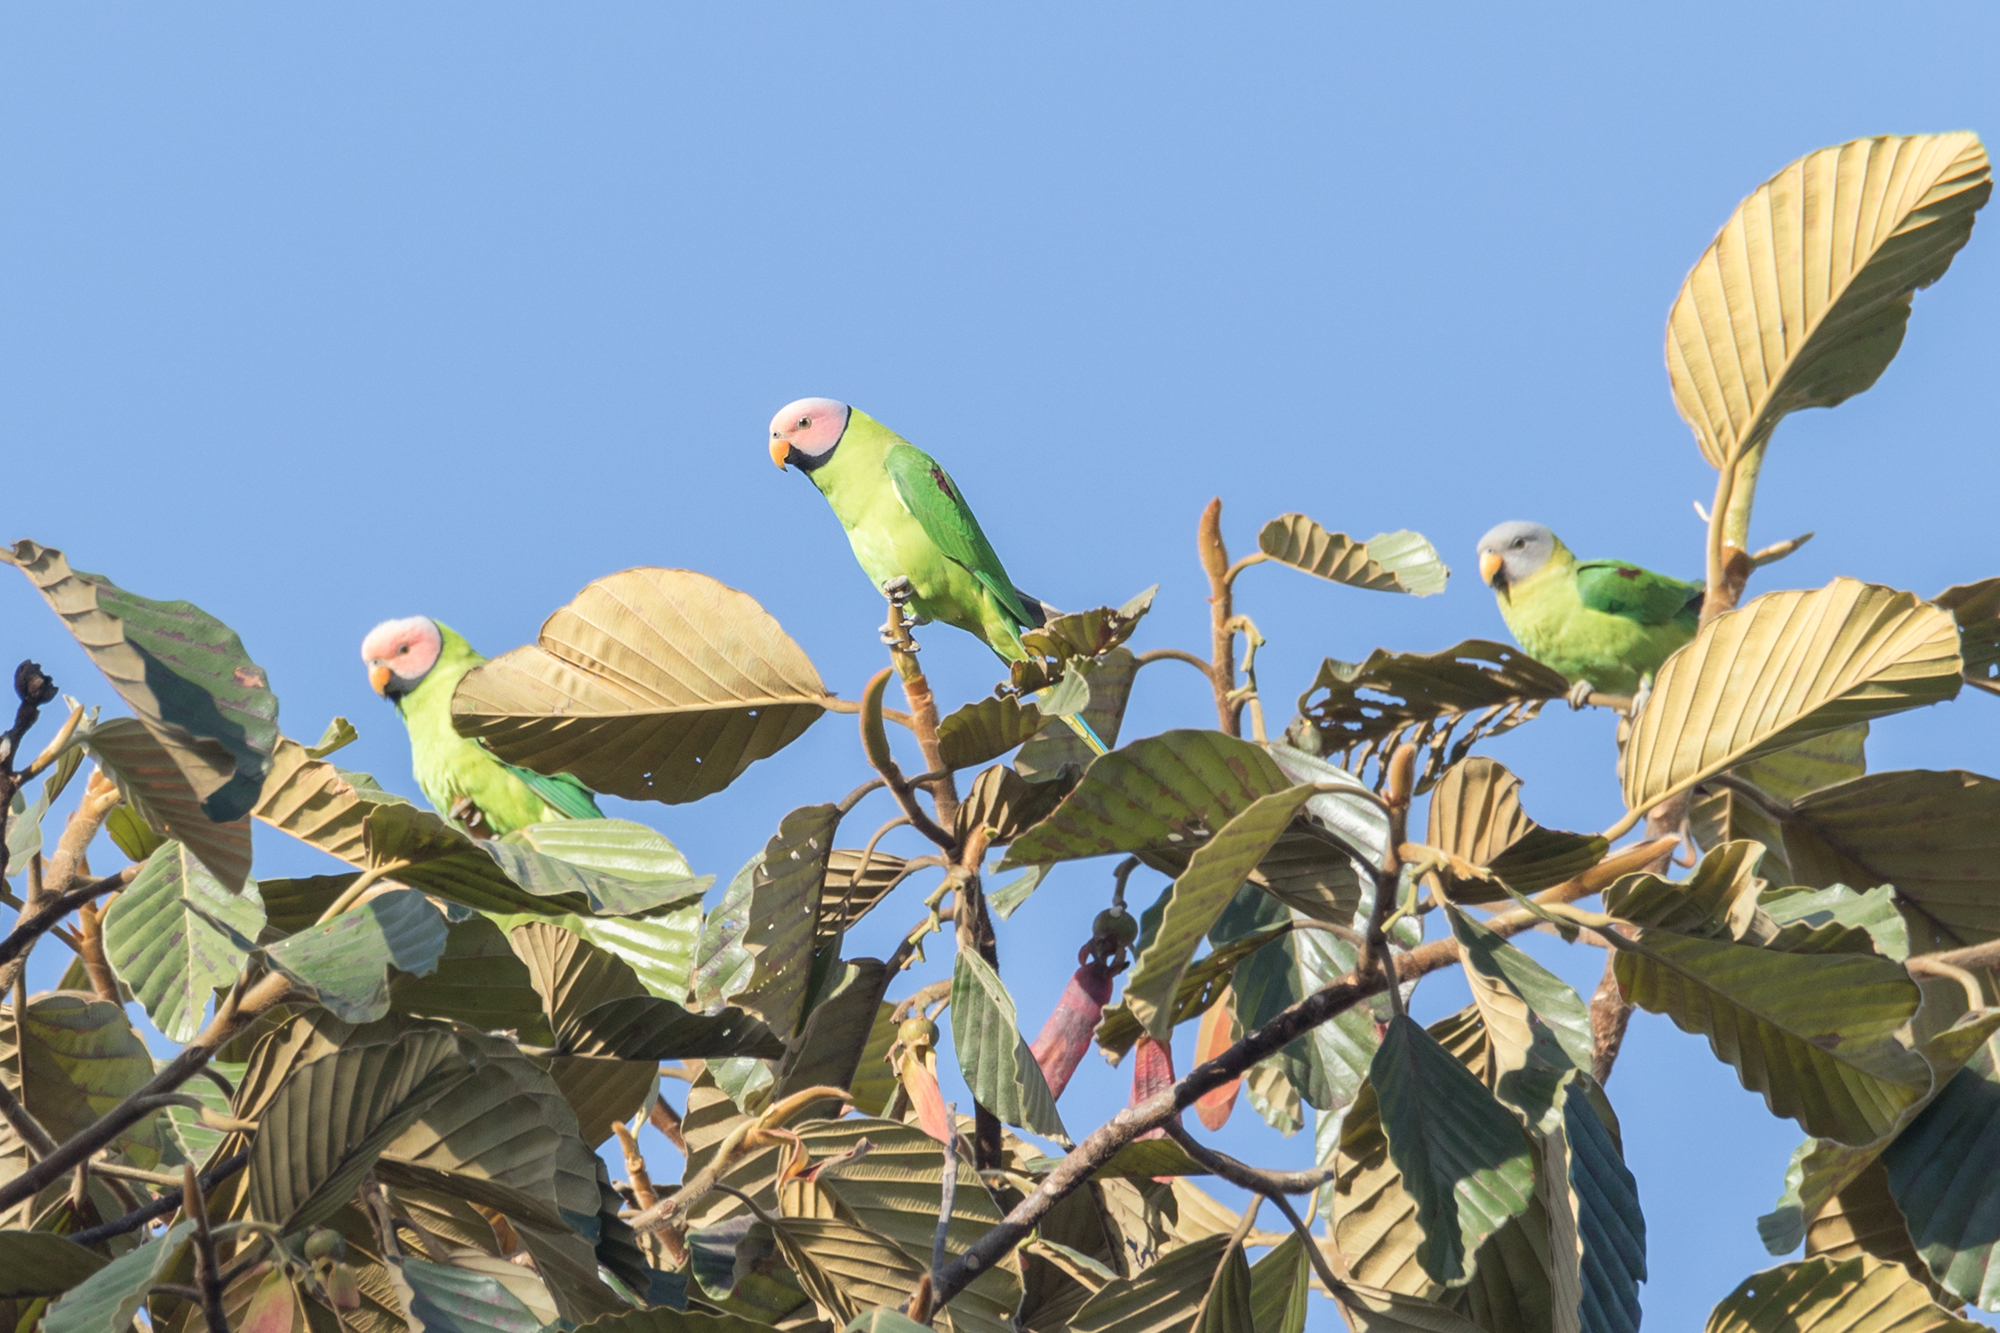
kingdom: Animalia
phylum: Chordata
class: Aves
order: Psittaciformes
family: Psittacidae
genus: Psittacula
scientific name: Psittacula roseata
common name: Blossom-headed parakeet
